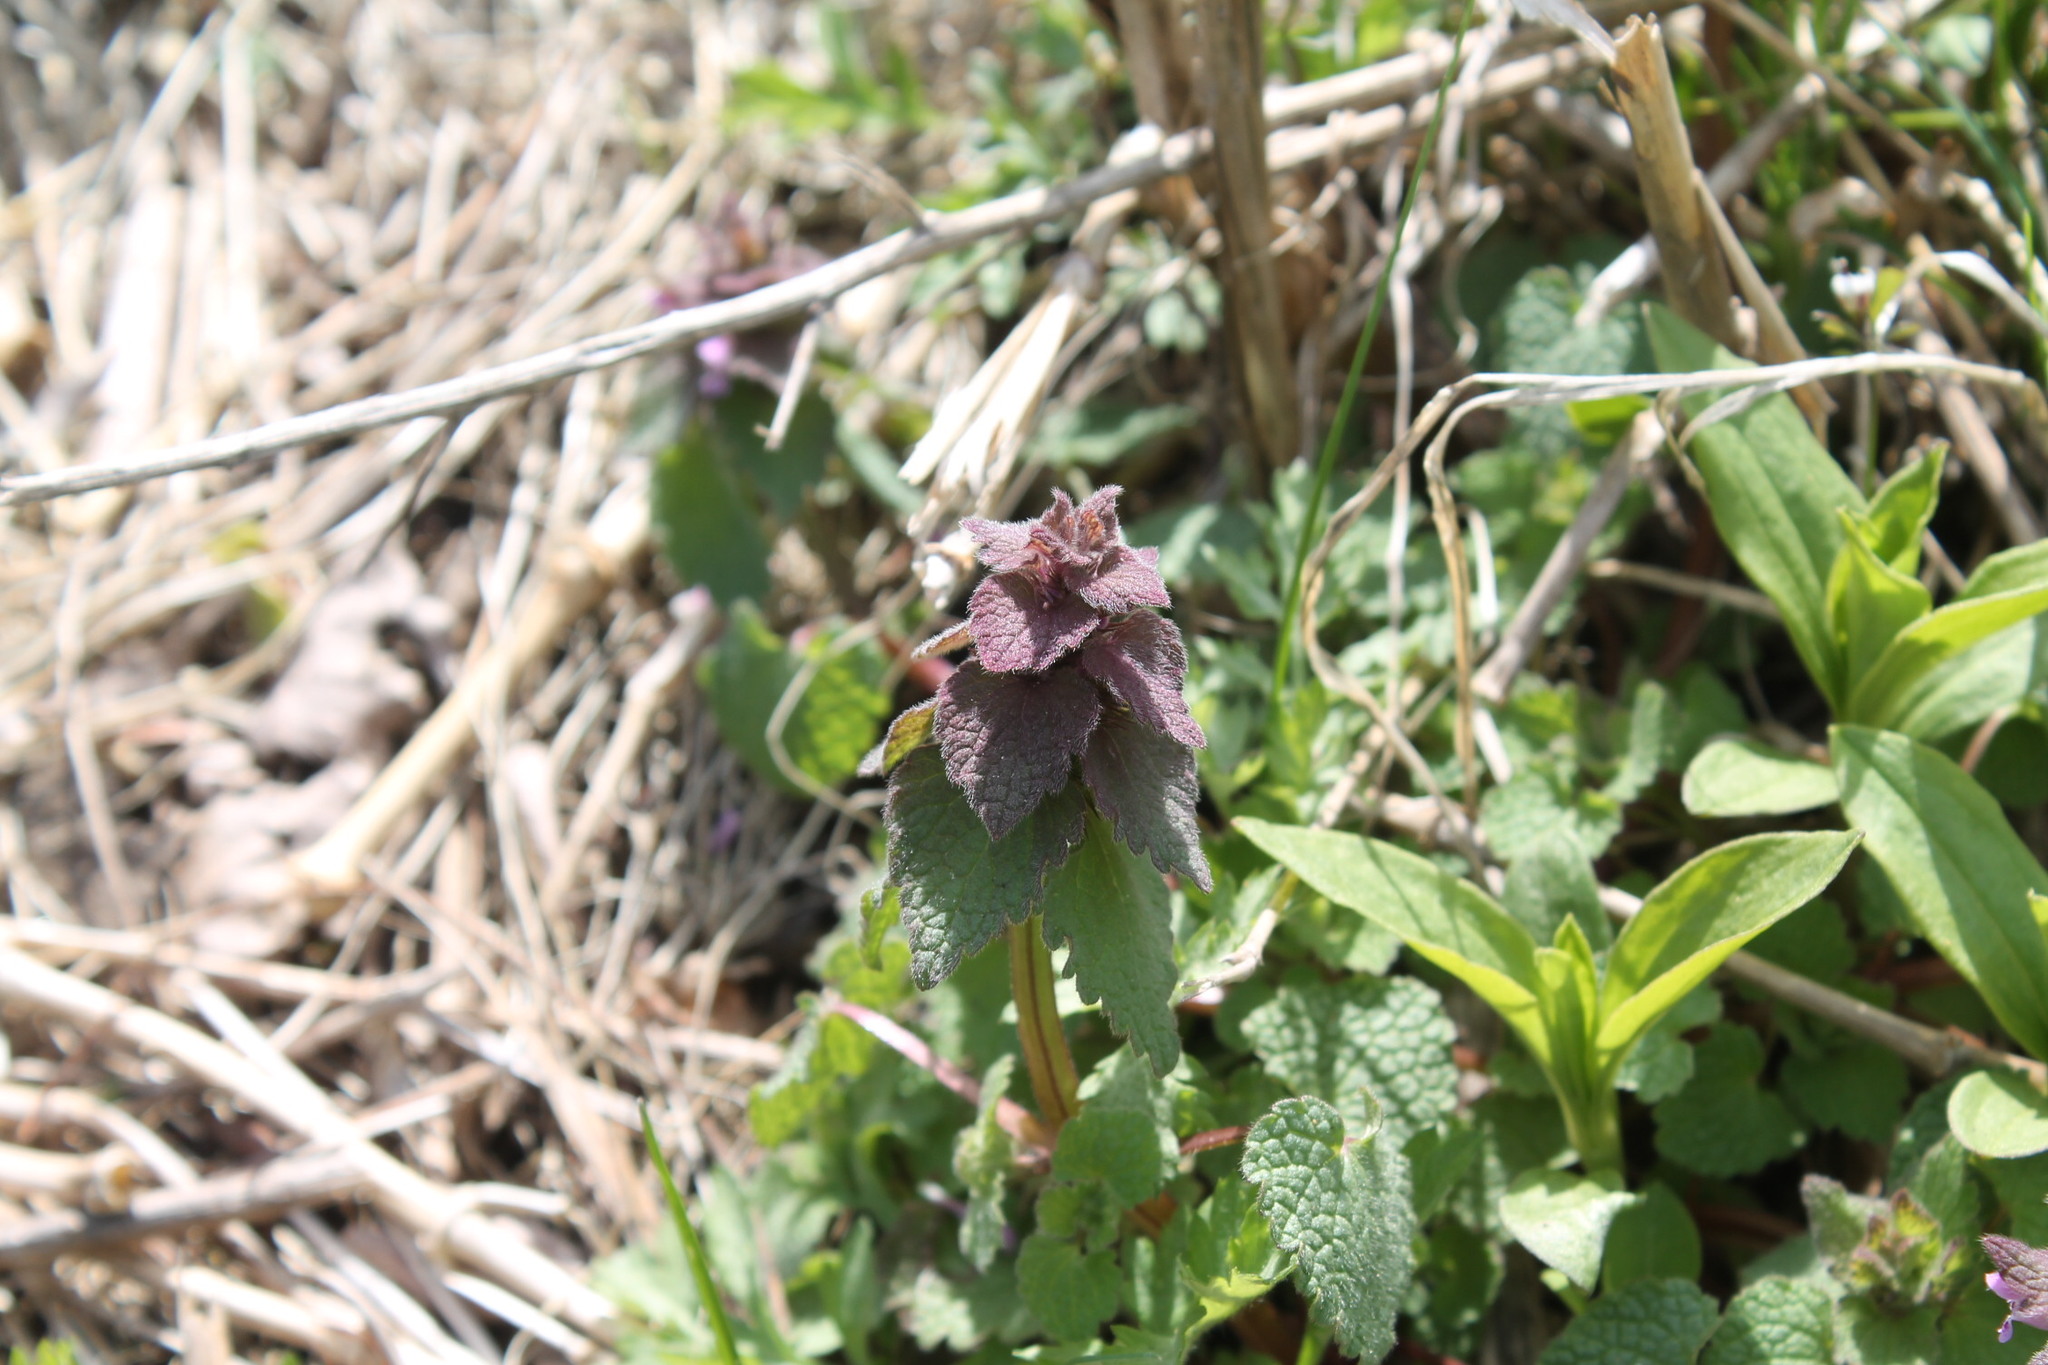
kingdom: Plantae
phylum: Tracheophyta
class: Magnoliopsida
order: Lamiales
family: Lamiaceae
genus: Lamium
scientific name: Lamium purpureum
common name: Red dead-nettle
